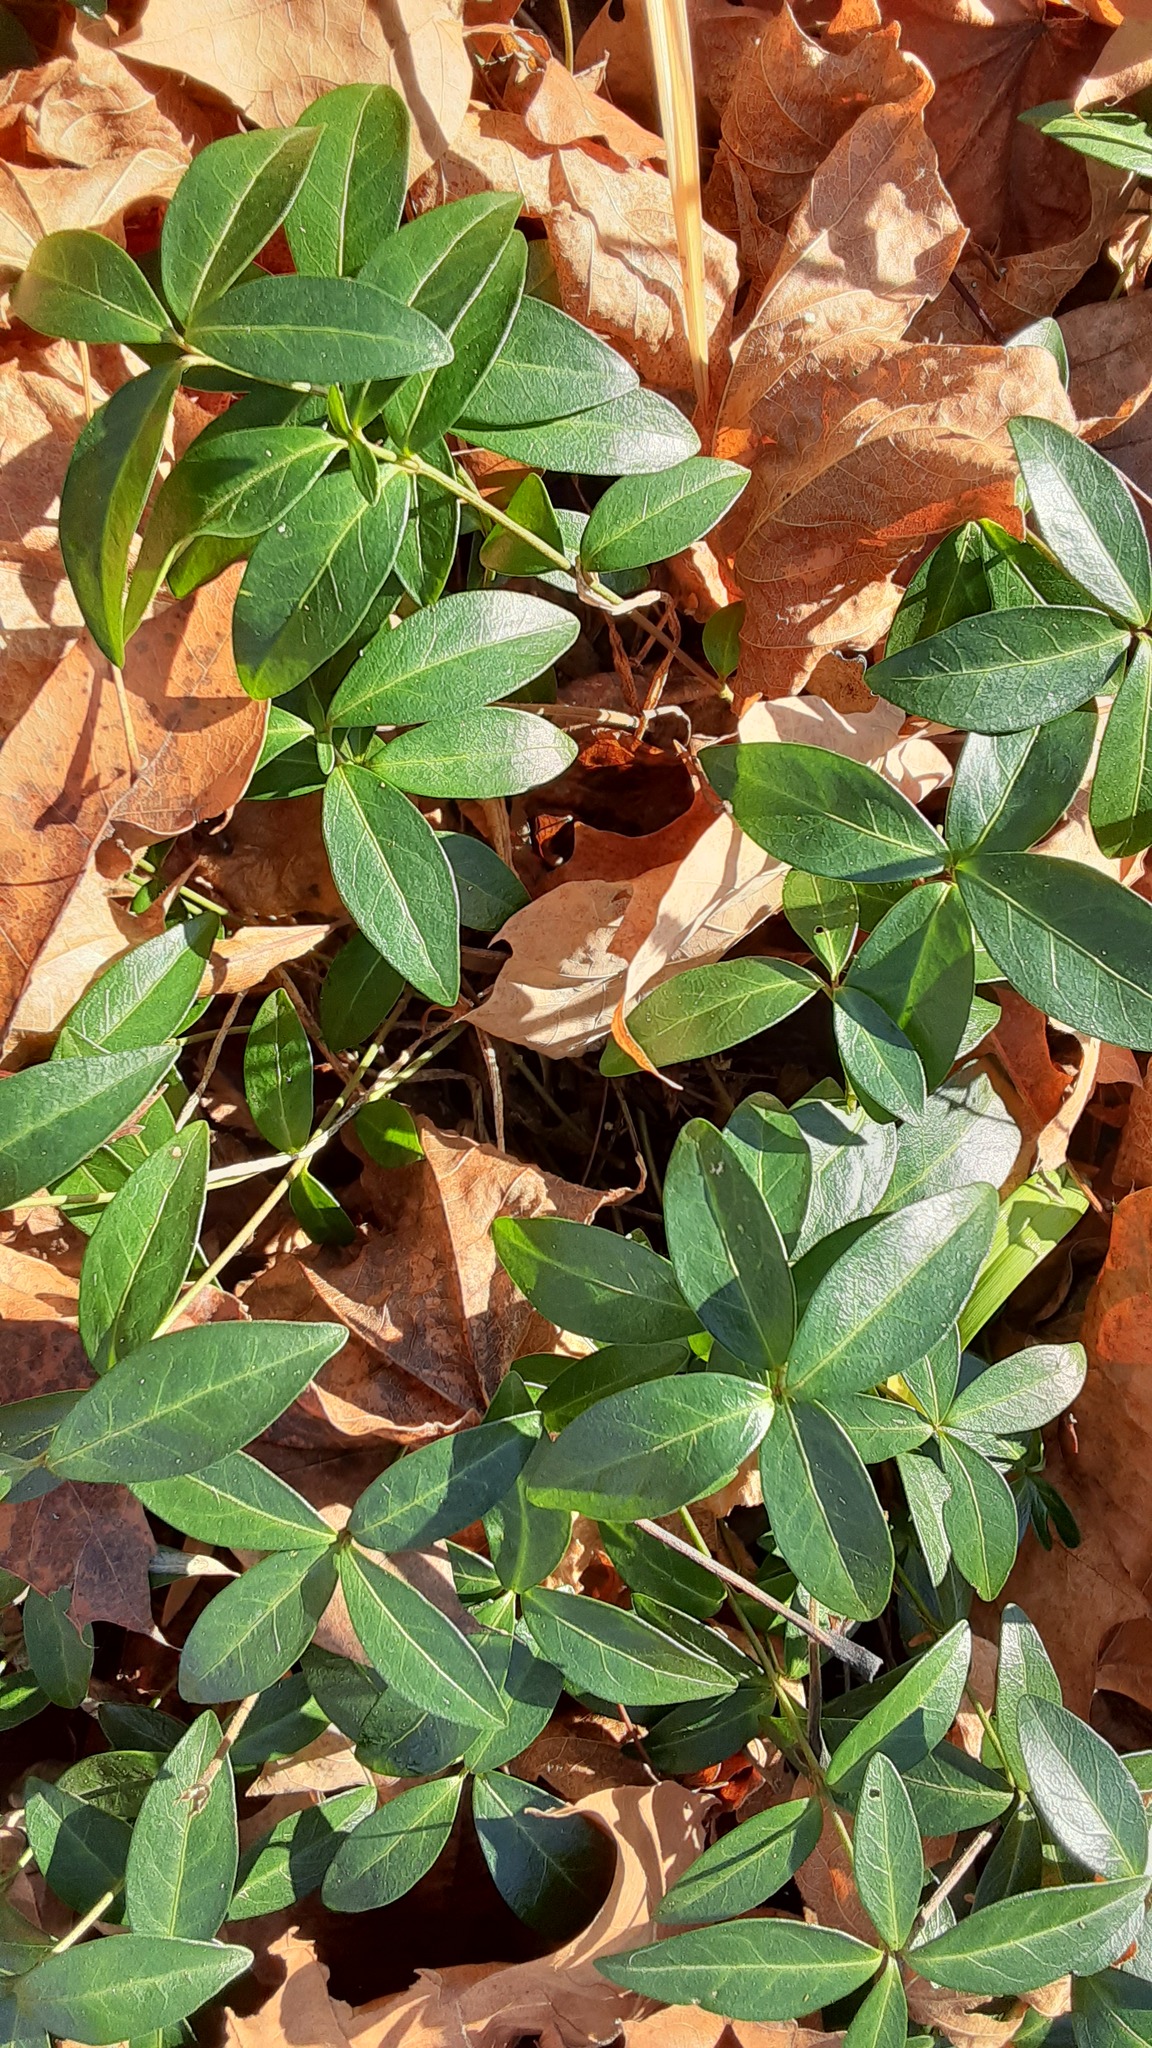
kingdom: Plantae
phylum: Tracheophyta
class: Magnoliopsida
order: Gentianales
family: Apocynaceae
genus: Vinca
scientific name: Vinca minor
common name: Lesser periwinkle
